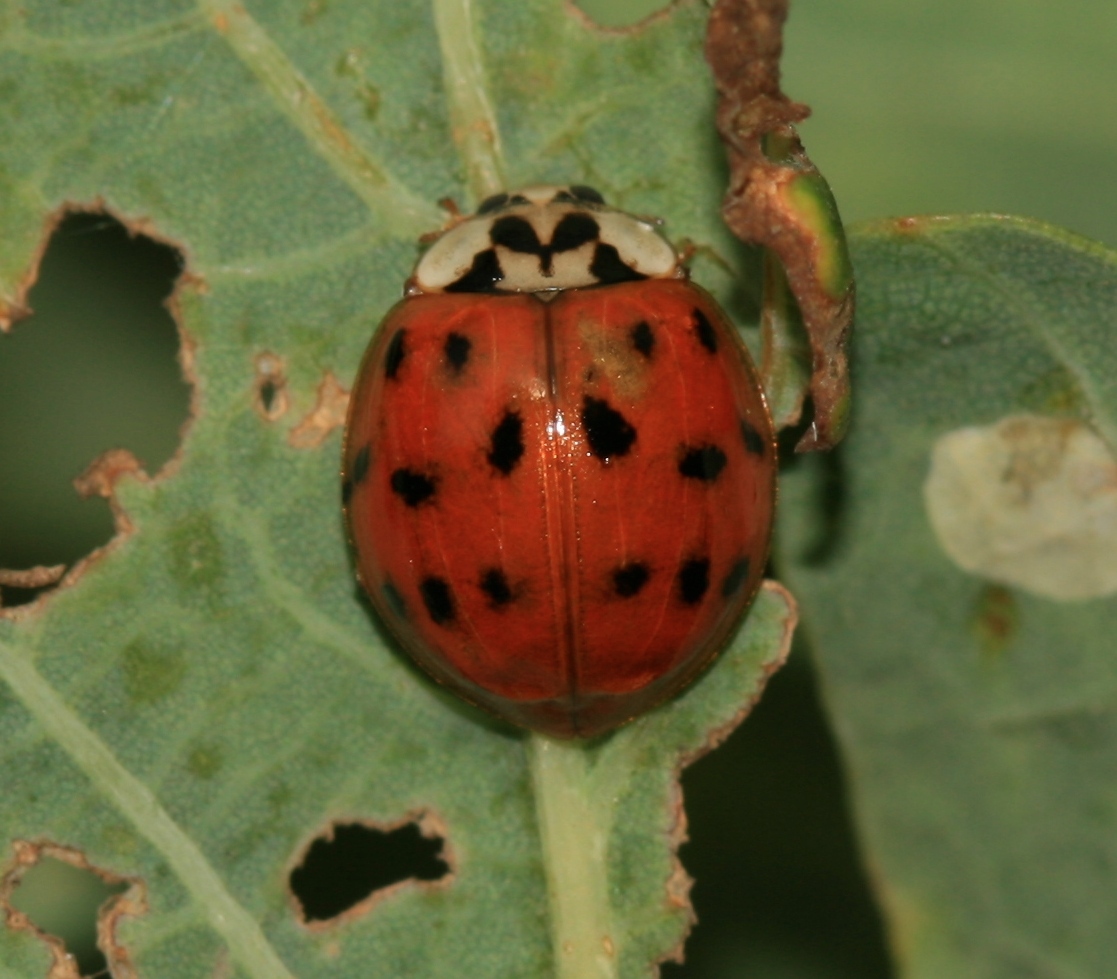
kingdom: Animalia
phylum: Arthropoda
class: Insecta
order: Coleoptera
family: Coccinellidae
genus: Harmonia
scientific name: Harmonia axyridis
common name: Harlequin ladybird
